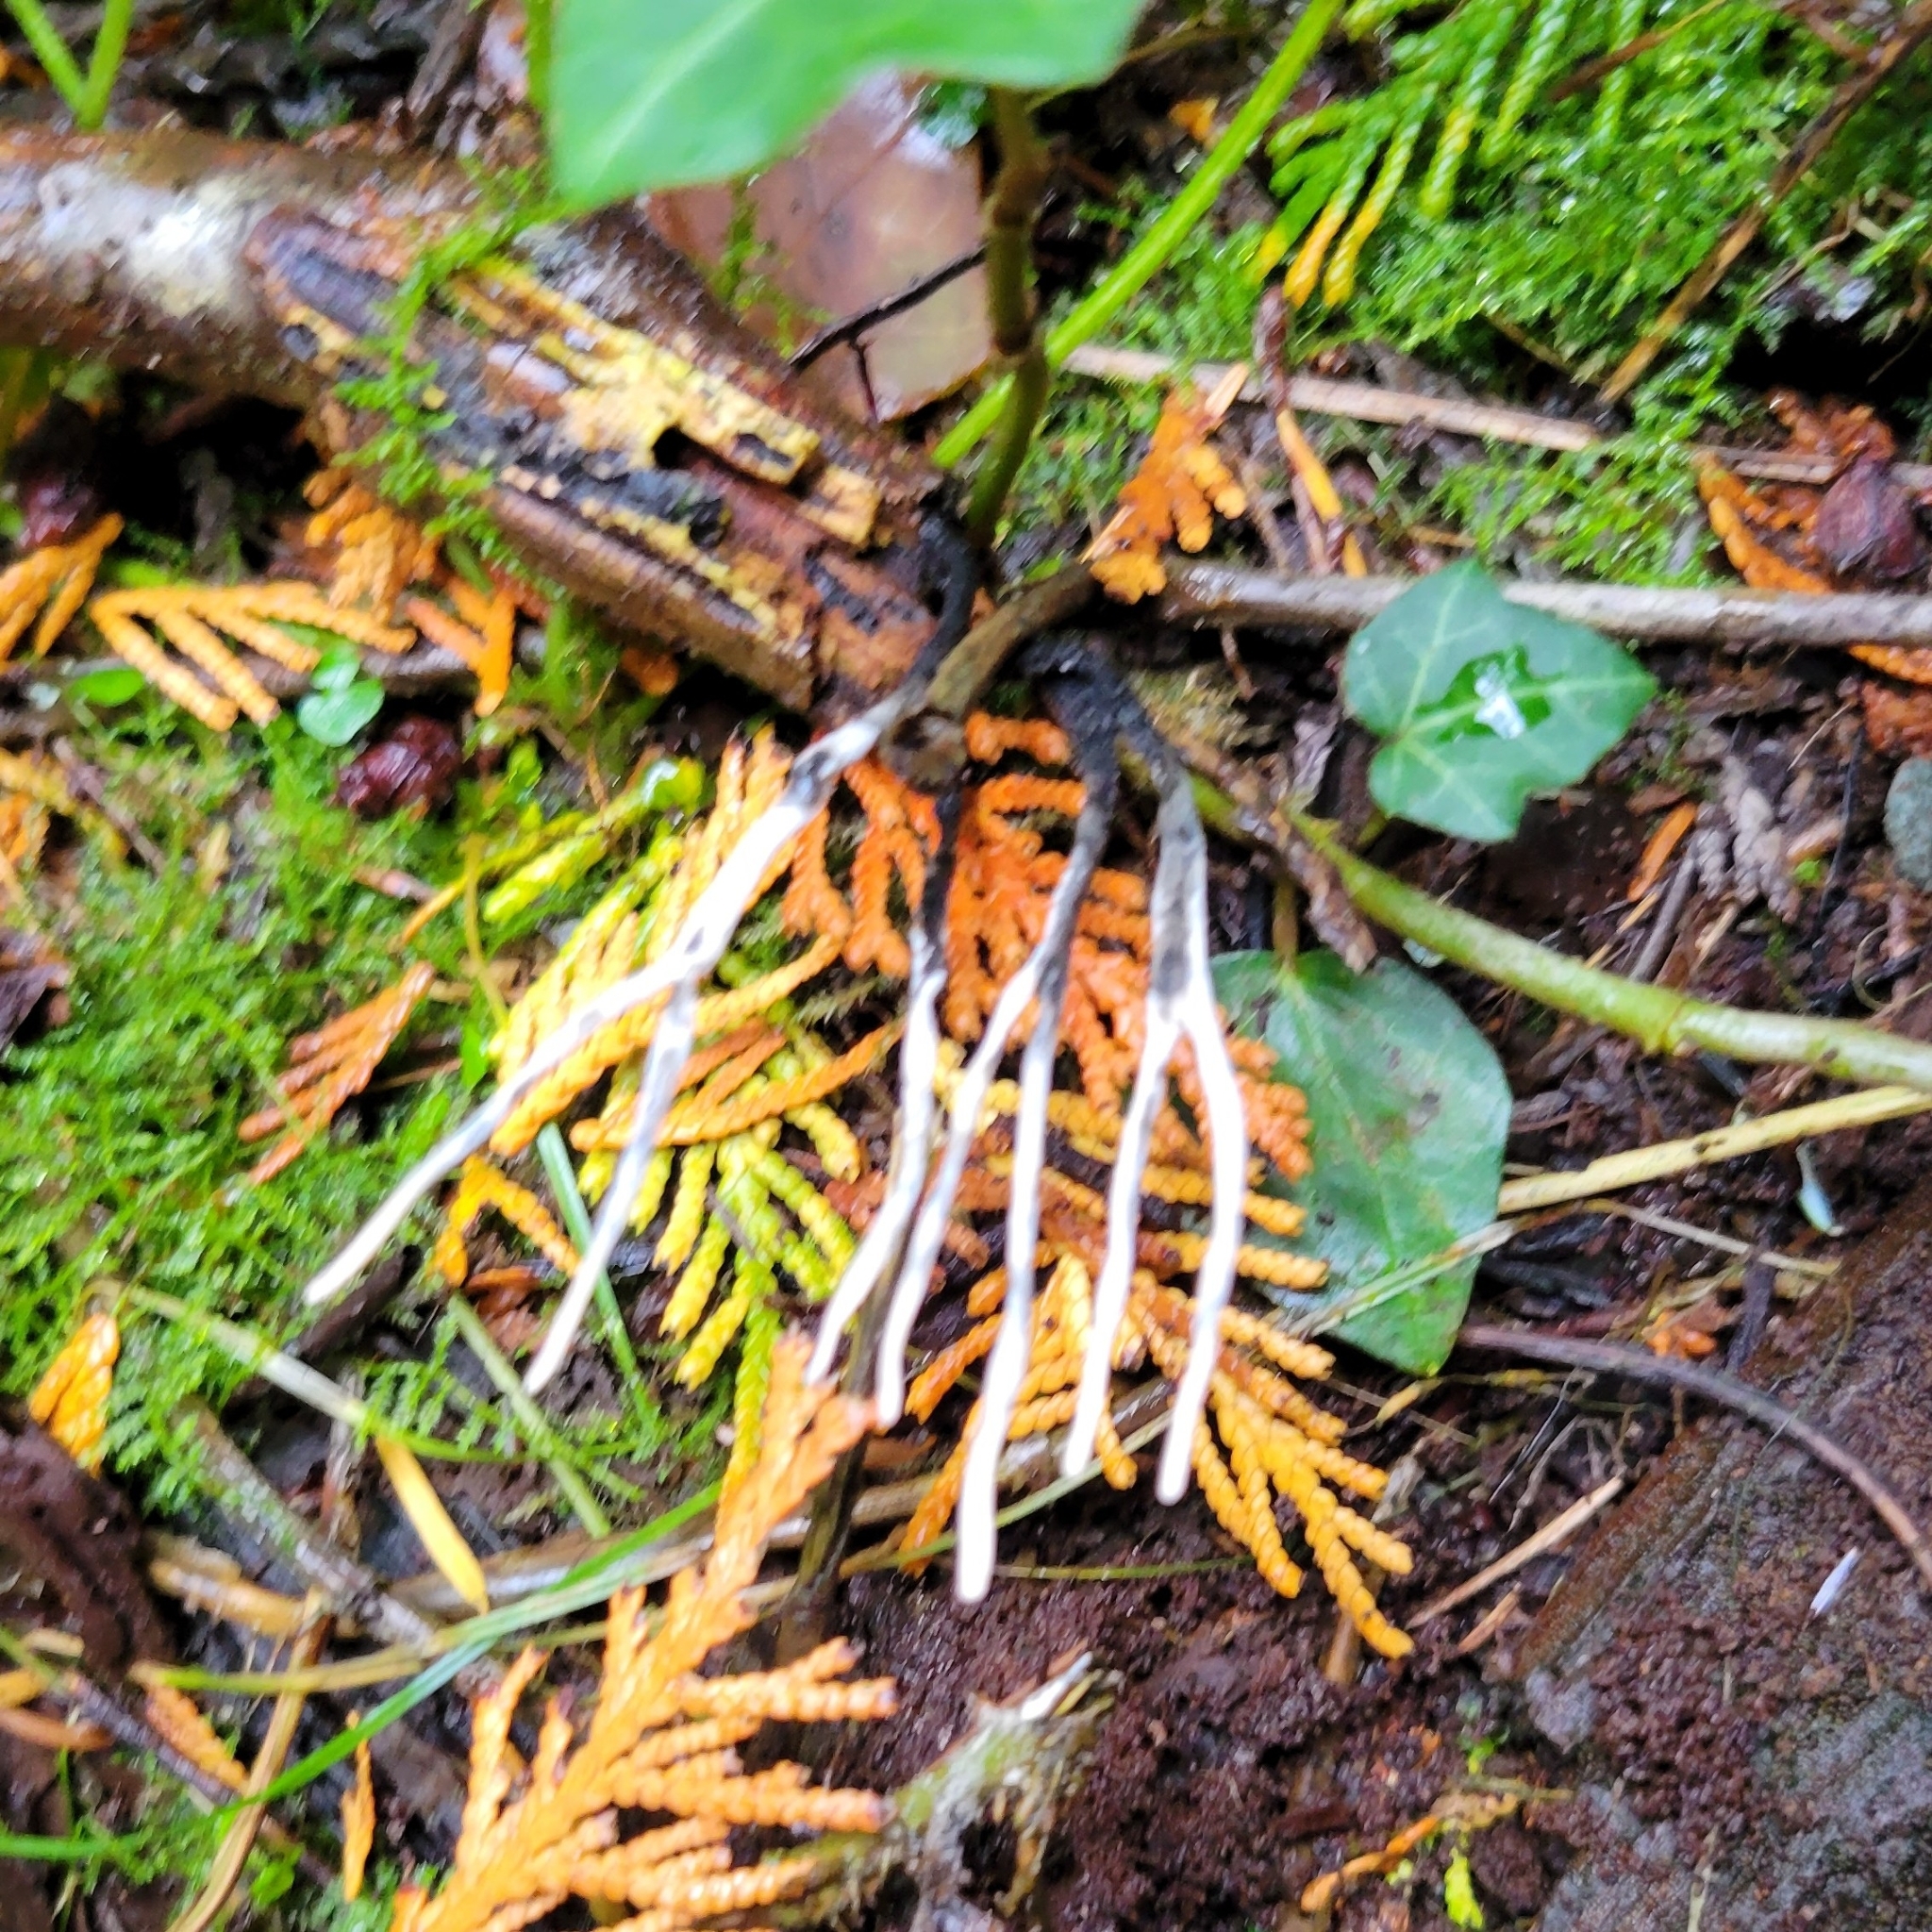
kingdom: Fungi
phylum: Ascomycota
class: Sordariomycetes
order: Xylariales
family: Xylariaceae
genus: Xylaria
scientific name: Xylaria hypoxylon
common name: Candle-snuff fungus
